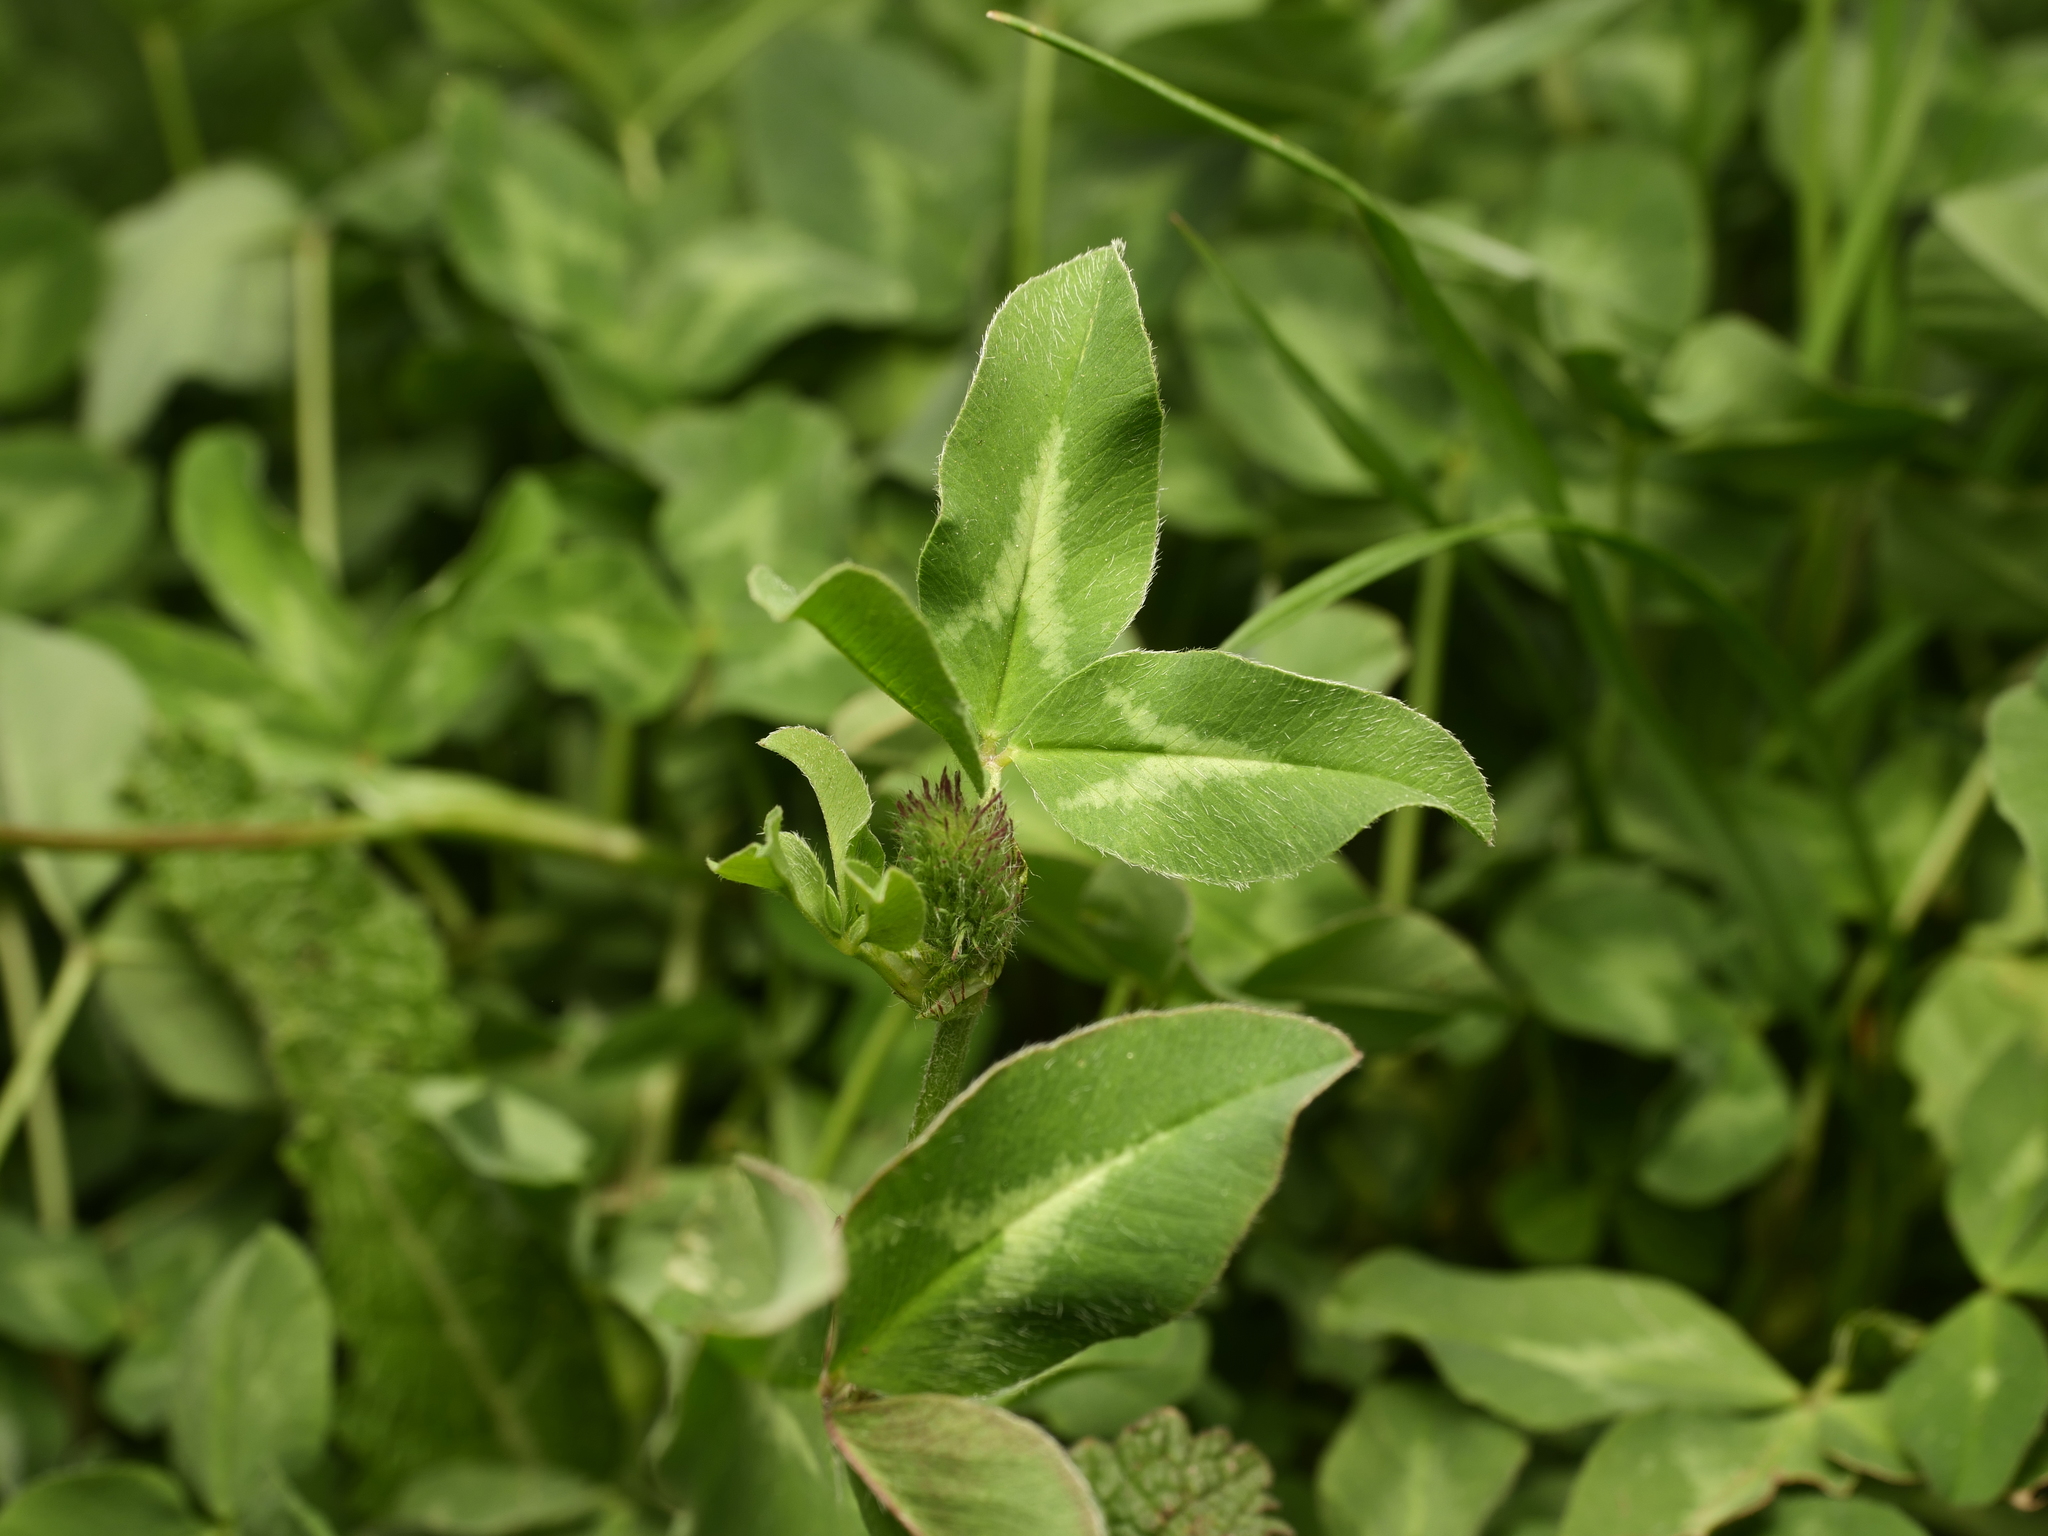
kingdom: Plantae
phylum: Tracheophyta
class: Magnoliopsida
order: Fabales
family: Fabaceae
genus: Trifolium
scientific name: Trifolium pratense
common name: Red clover
